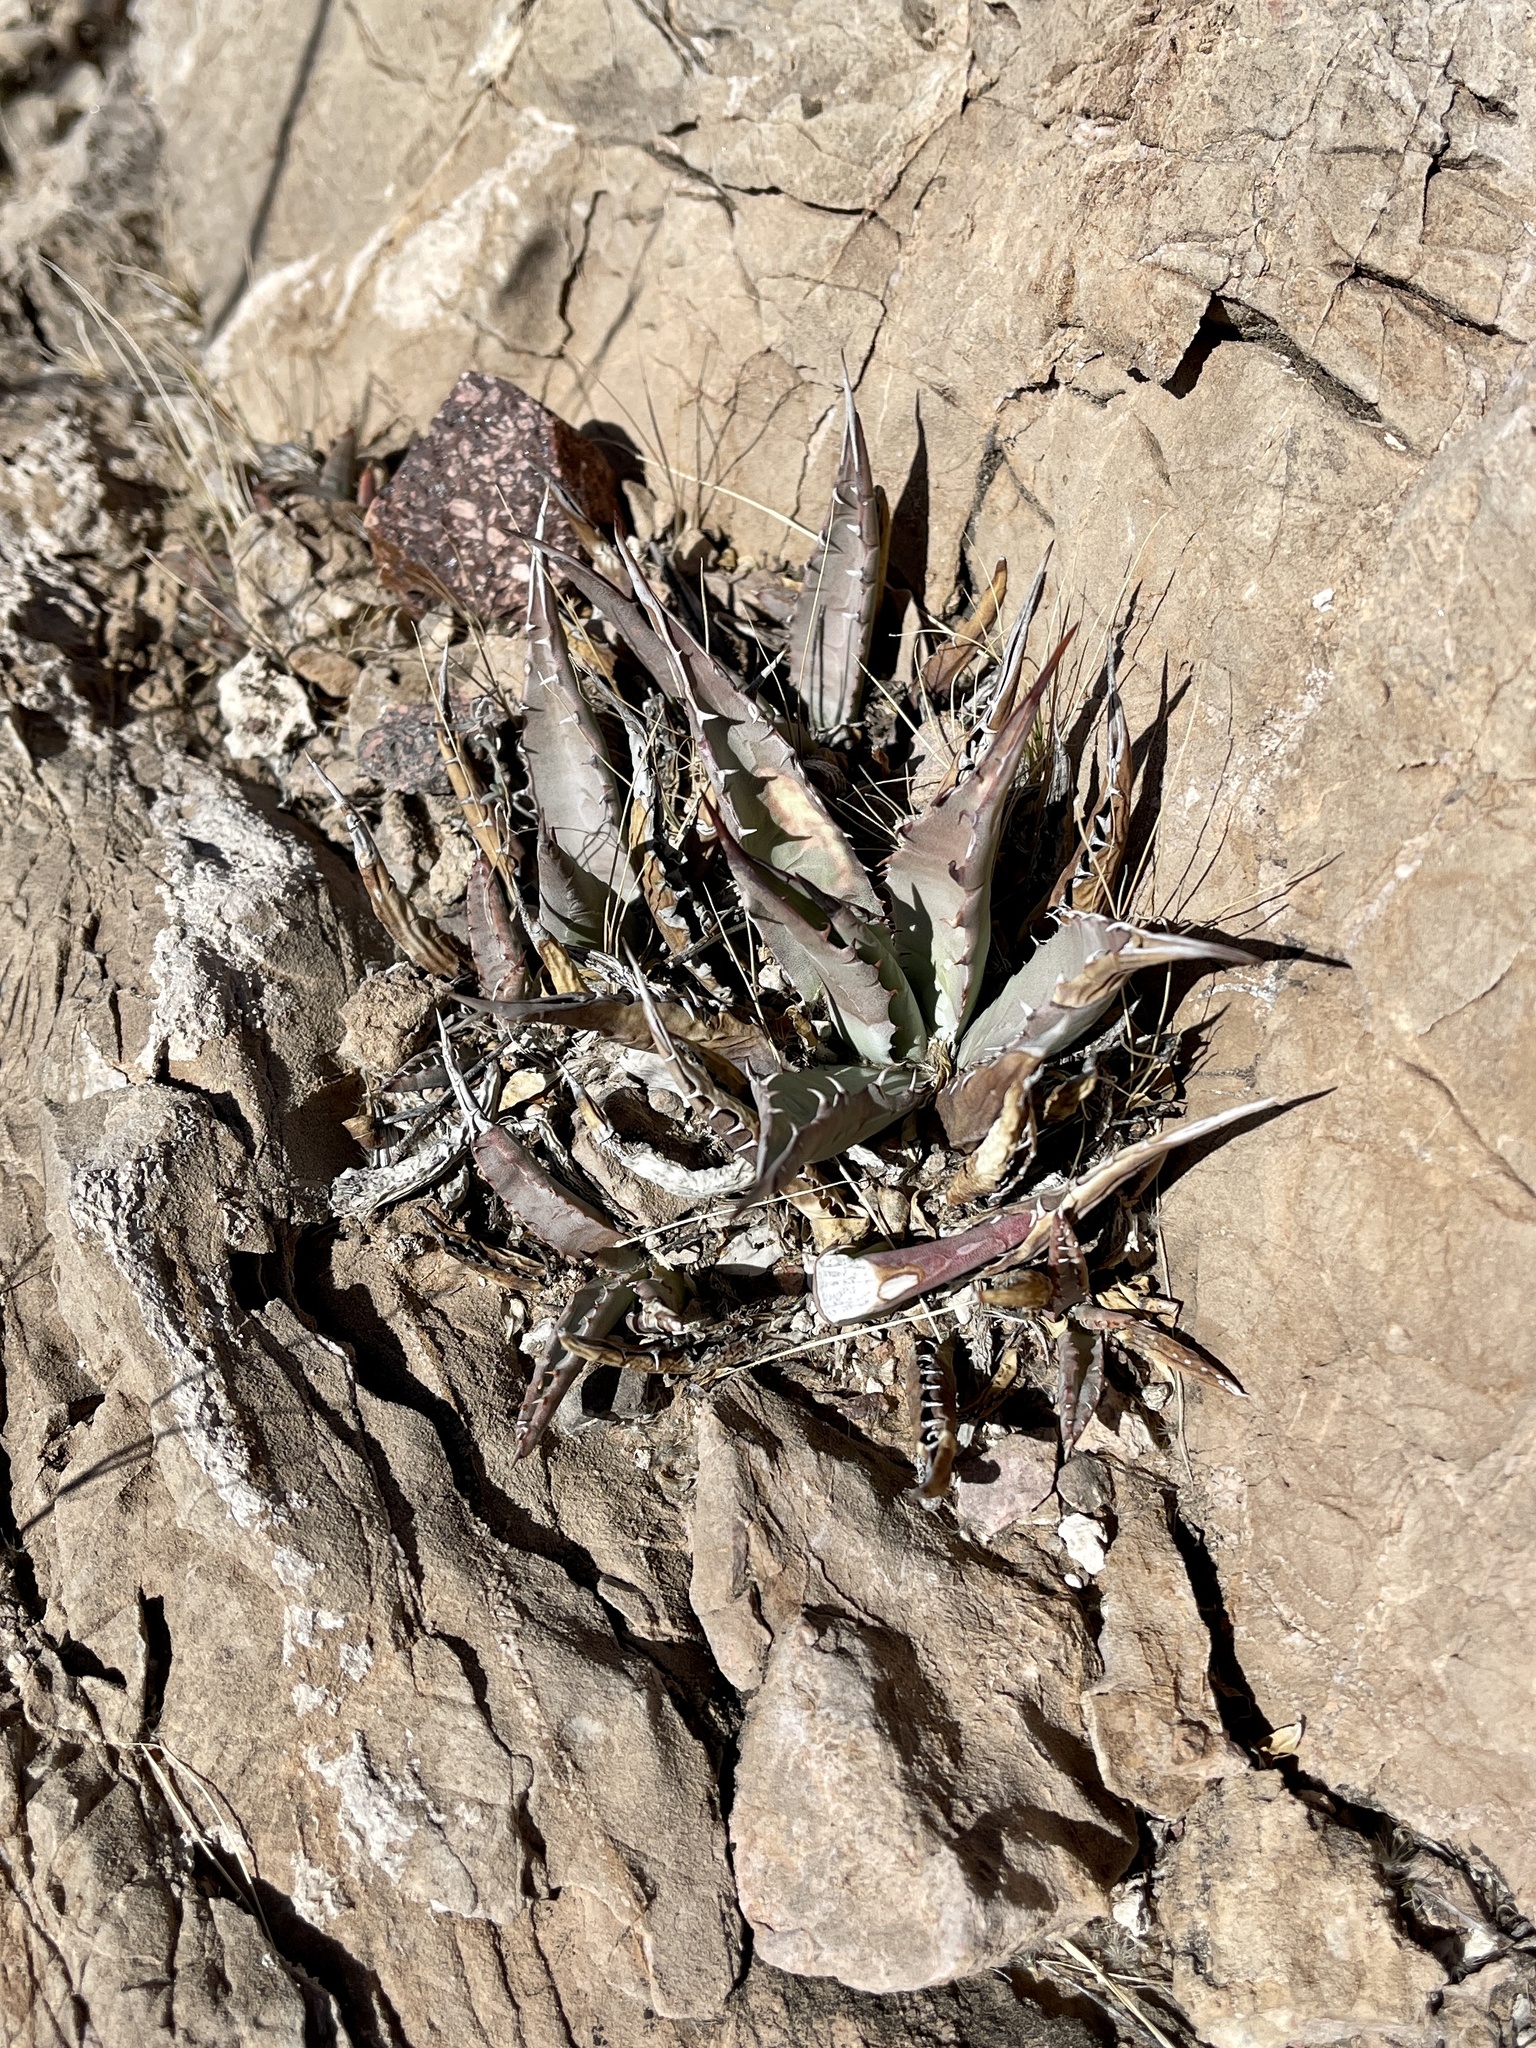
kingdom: Plantae
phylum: Tracheophyta
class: Liliopsida
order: Asparagales
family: Asparagaceae
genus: Agave
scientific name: Agave parryi
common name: Parry's agave
